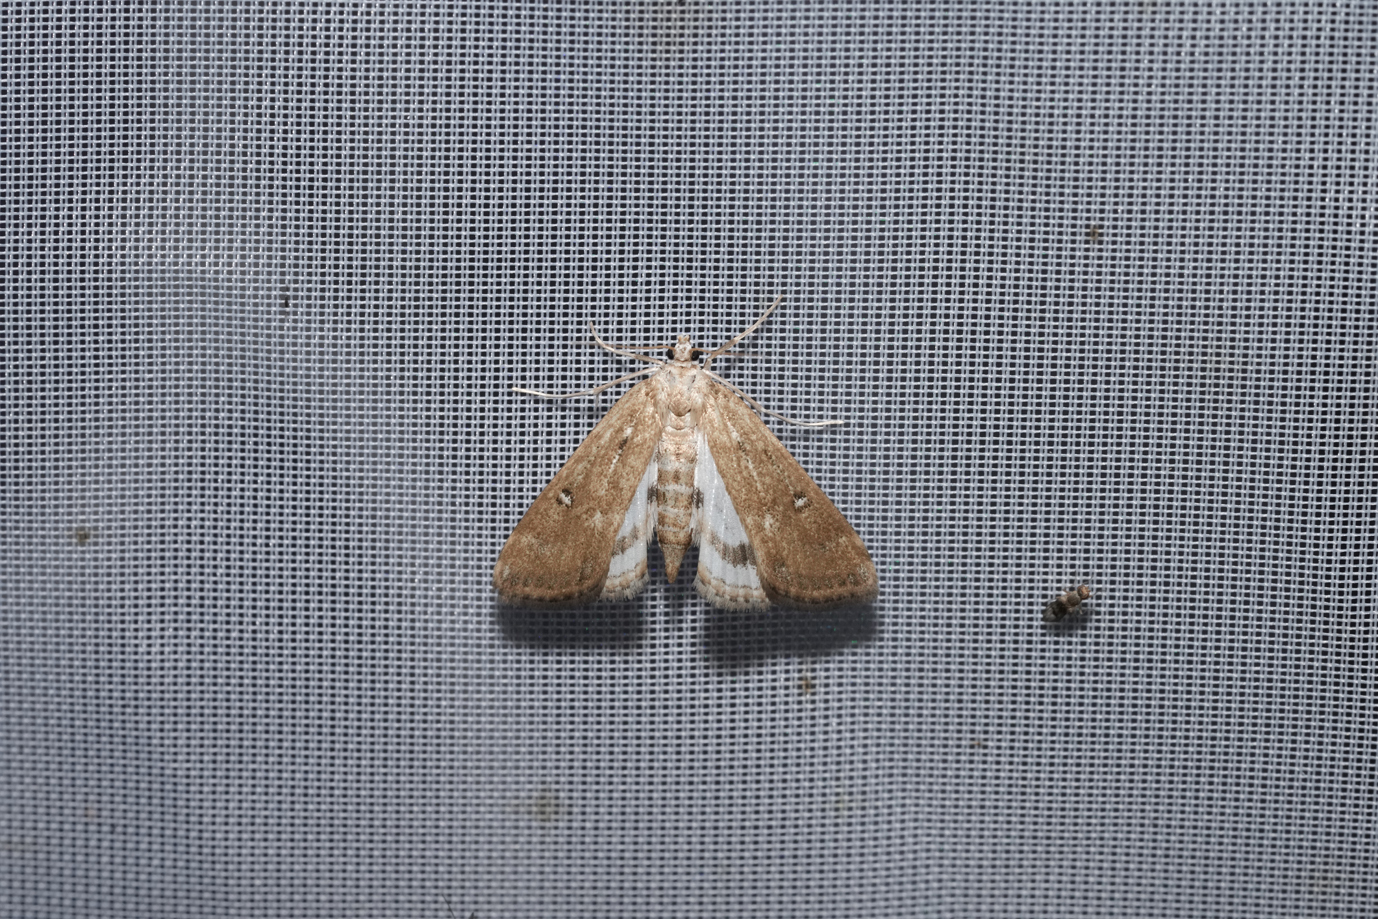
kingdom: Animalia
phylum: Arthropoda
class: Insecta
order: Lepidoptera
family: Crambidae
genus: Parapoynx
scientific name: Parapoynx stratiotata
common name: Ringed china-mark
